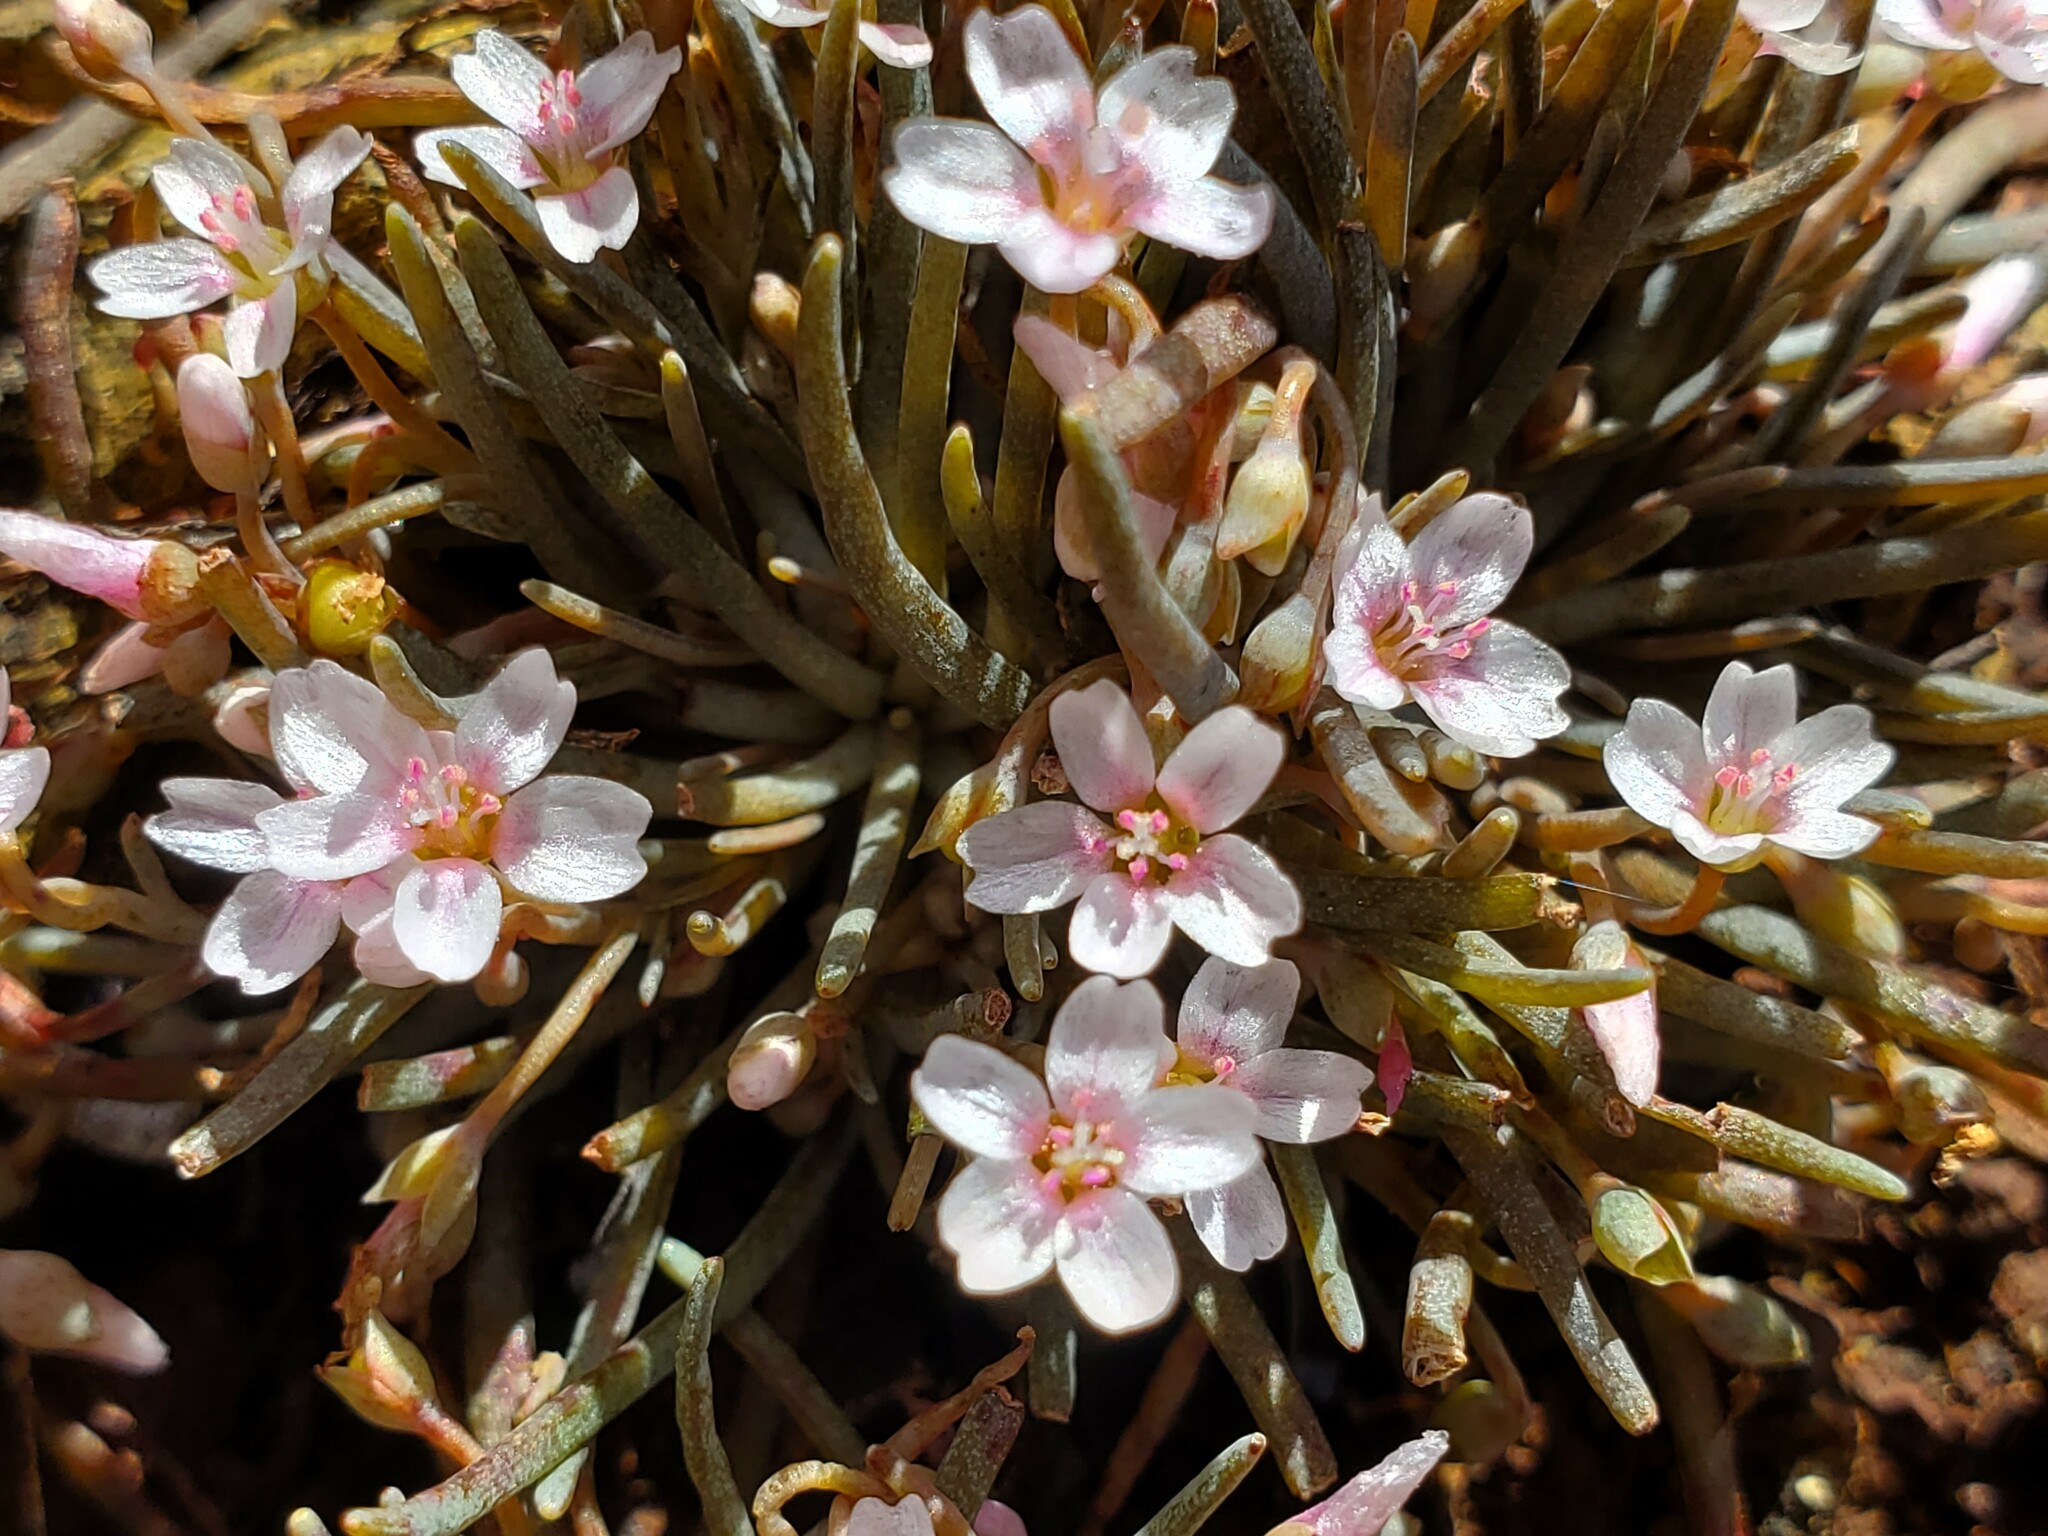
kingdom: Plantae
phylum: Tracheophyta
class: Magnoliopsida
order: Caryophyllales
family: Montiaceae
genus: Claytonia
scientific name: Claytonia exigua
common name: Pale spring beauty
